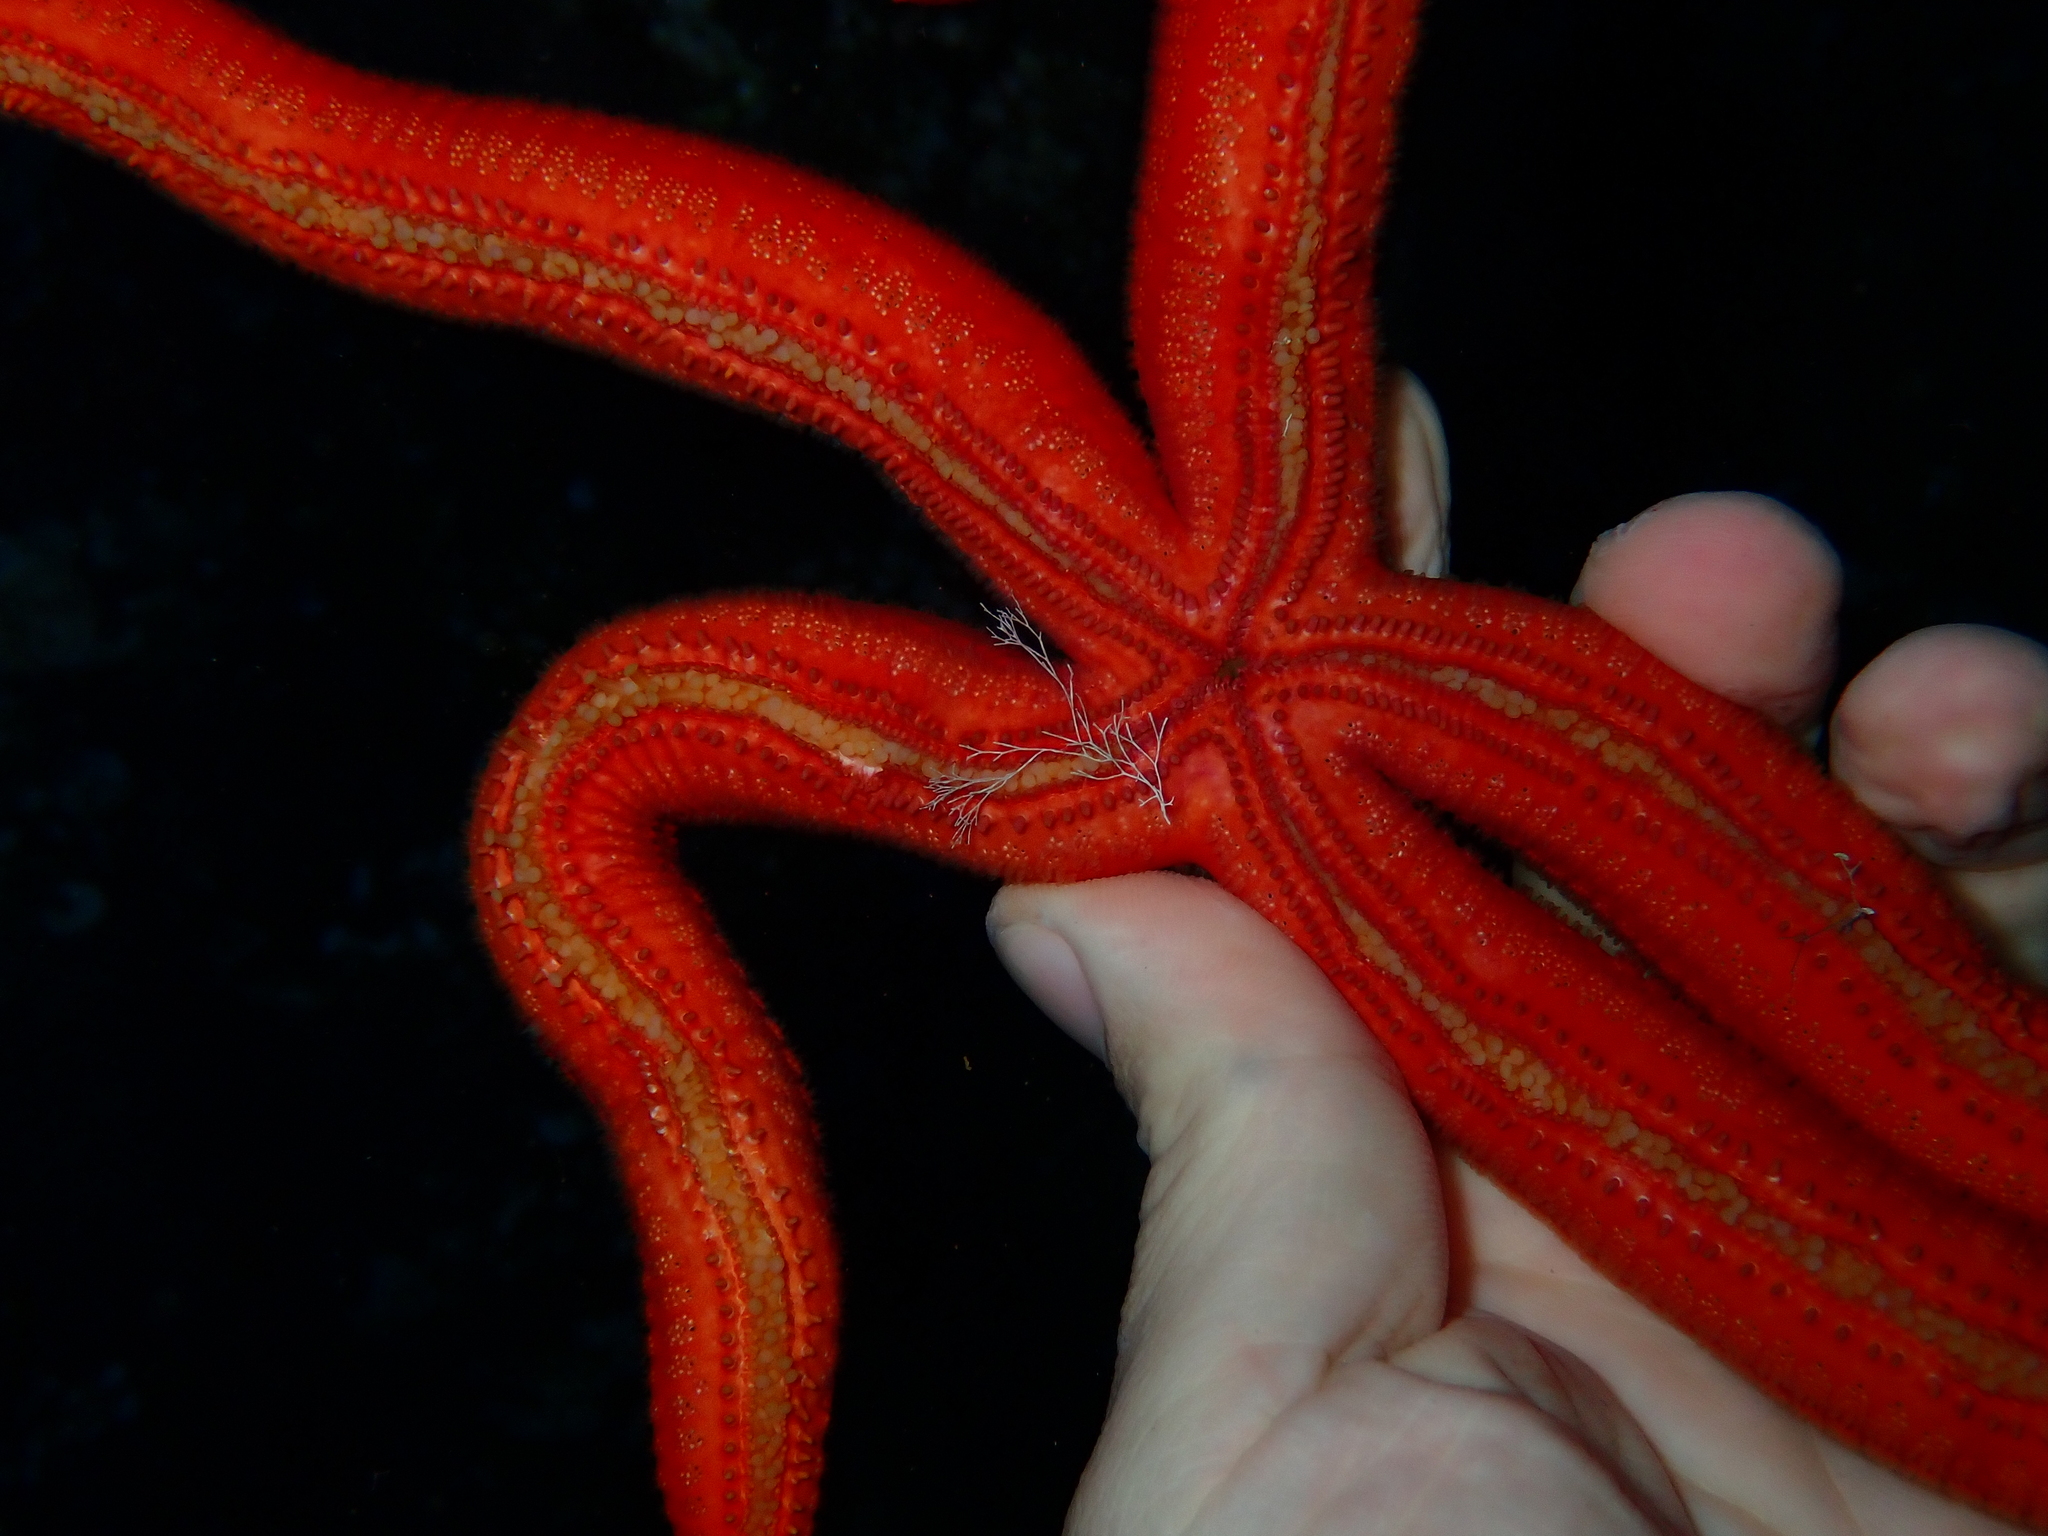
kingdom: Animalia
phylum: Echinodermata
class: Asteroidea
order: Valvatida
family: Ophidiasteridae
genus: Ophidiaster
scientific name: Ophidiaster ophidianus
